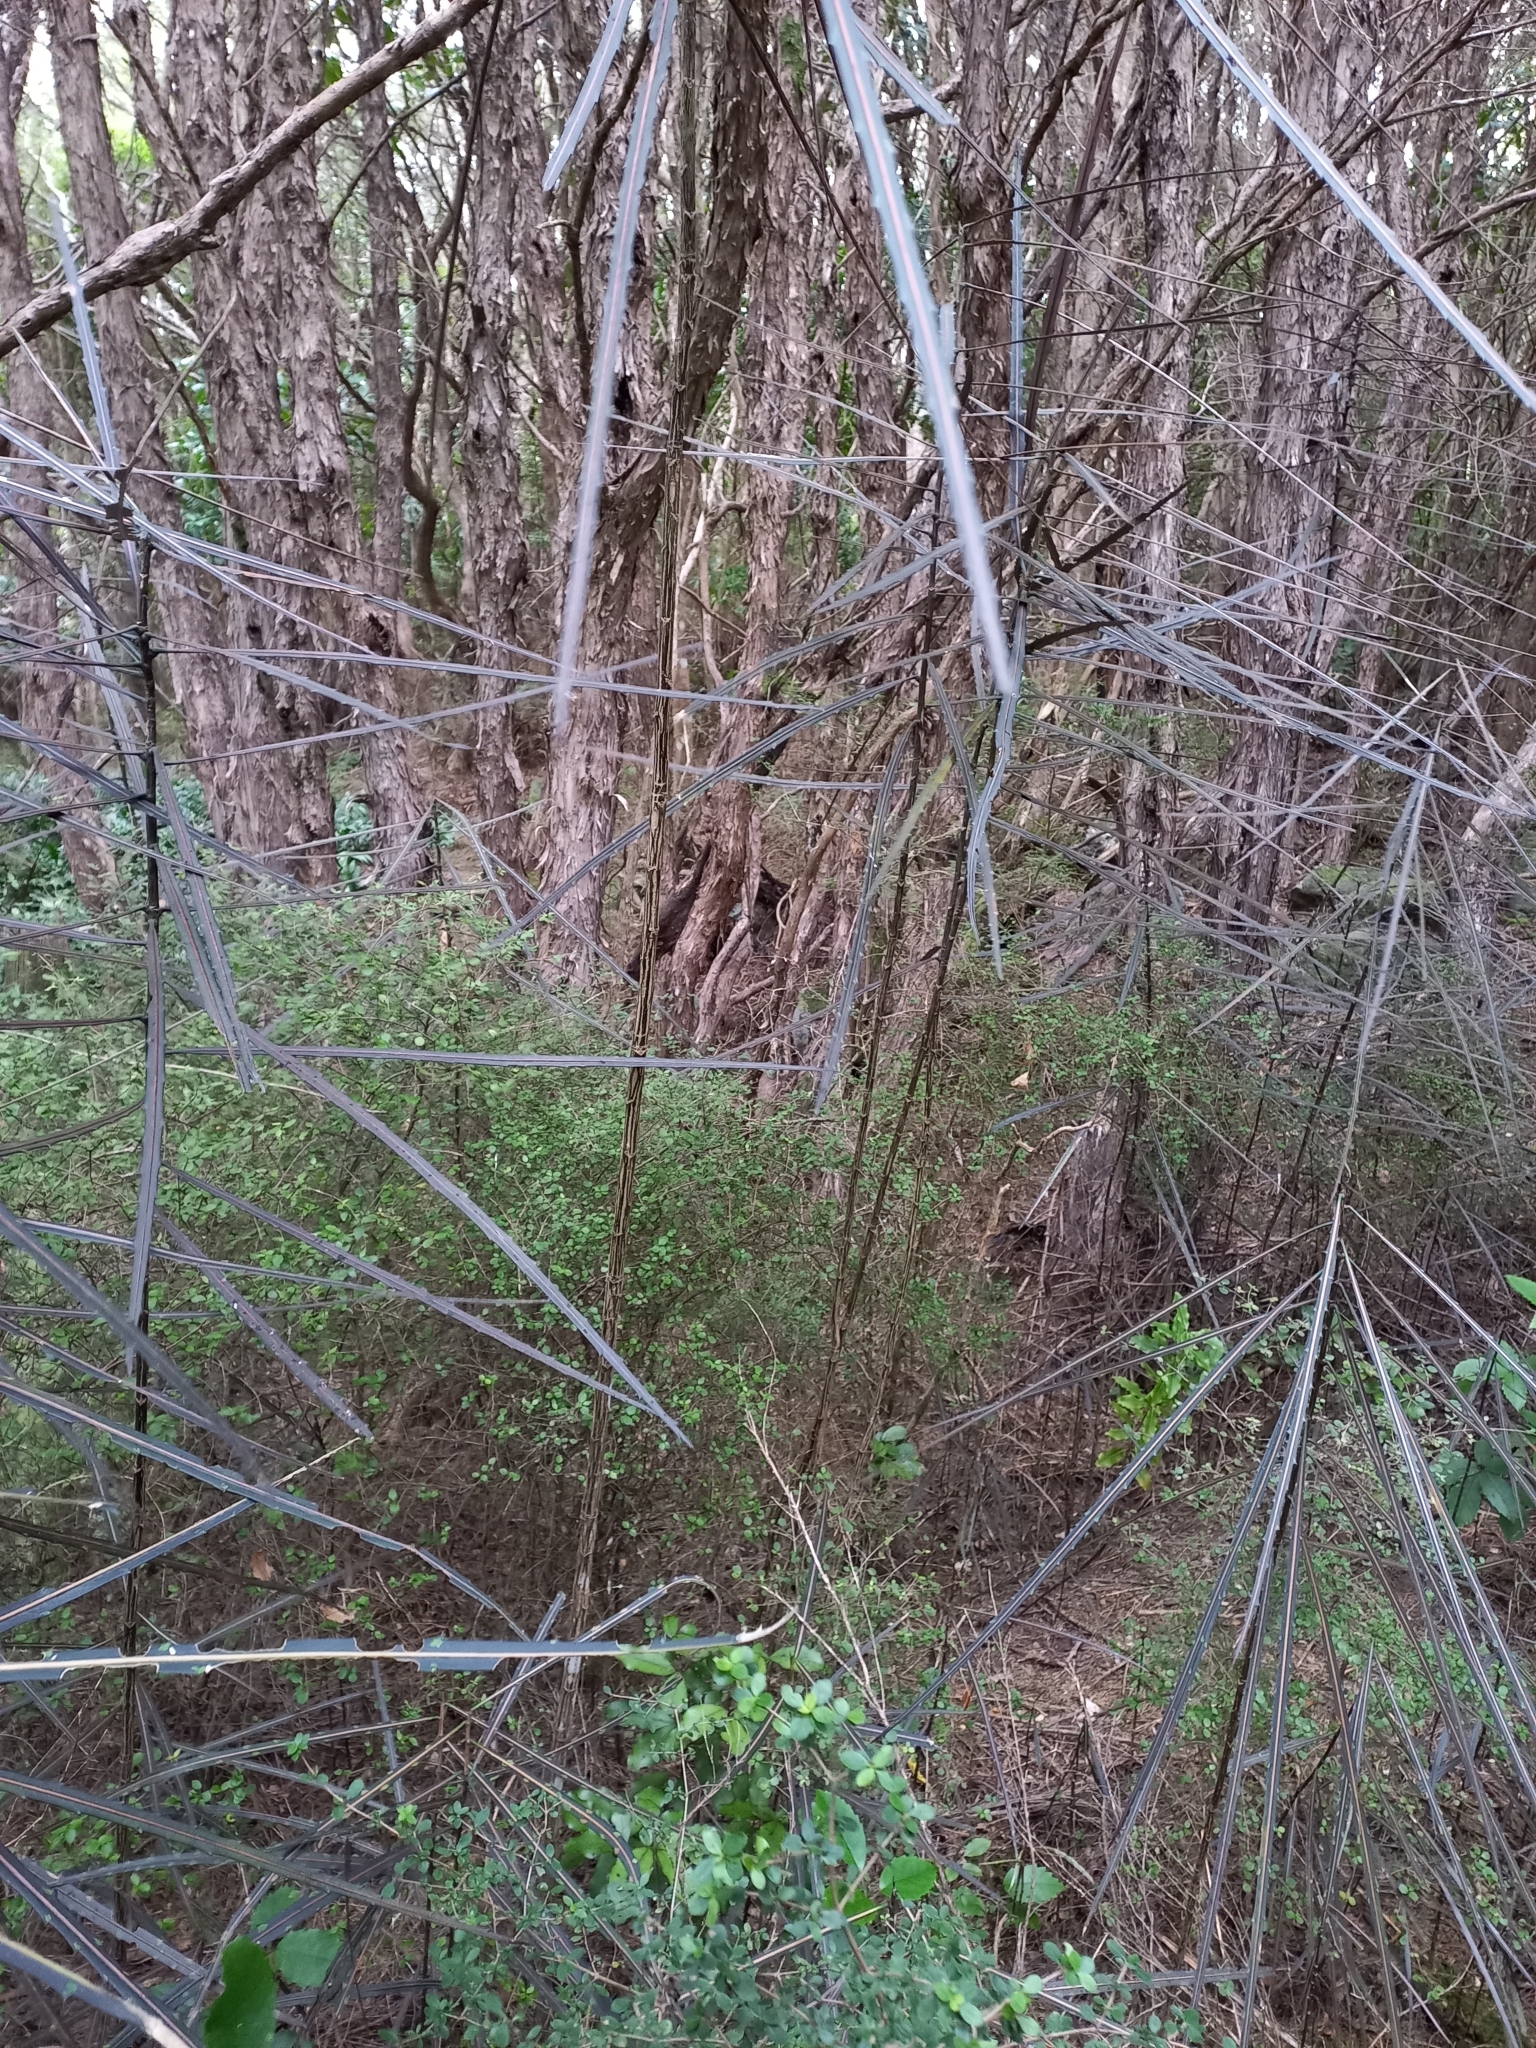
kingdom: Plantae
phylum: Tracheophyta
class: Magnoliopsida
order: Apiales
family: Araliaceae
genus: Pseudopanax
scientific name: Pseudopanax crassifolius
